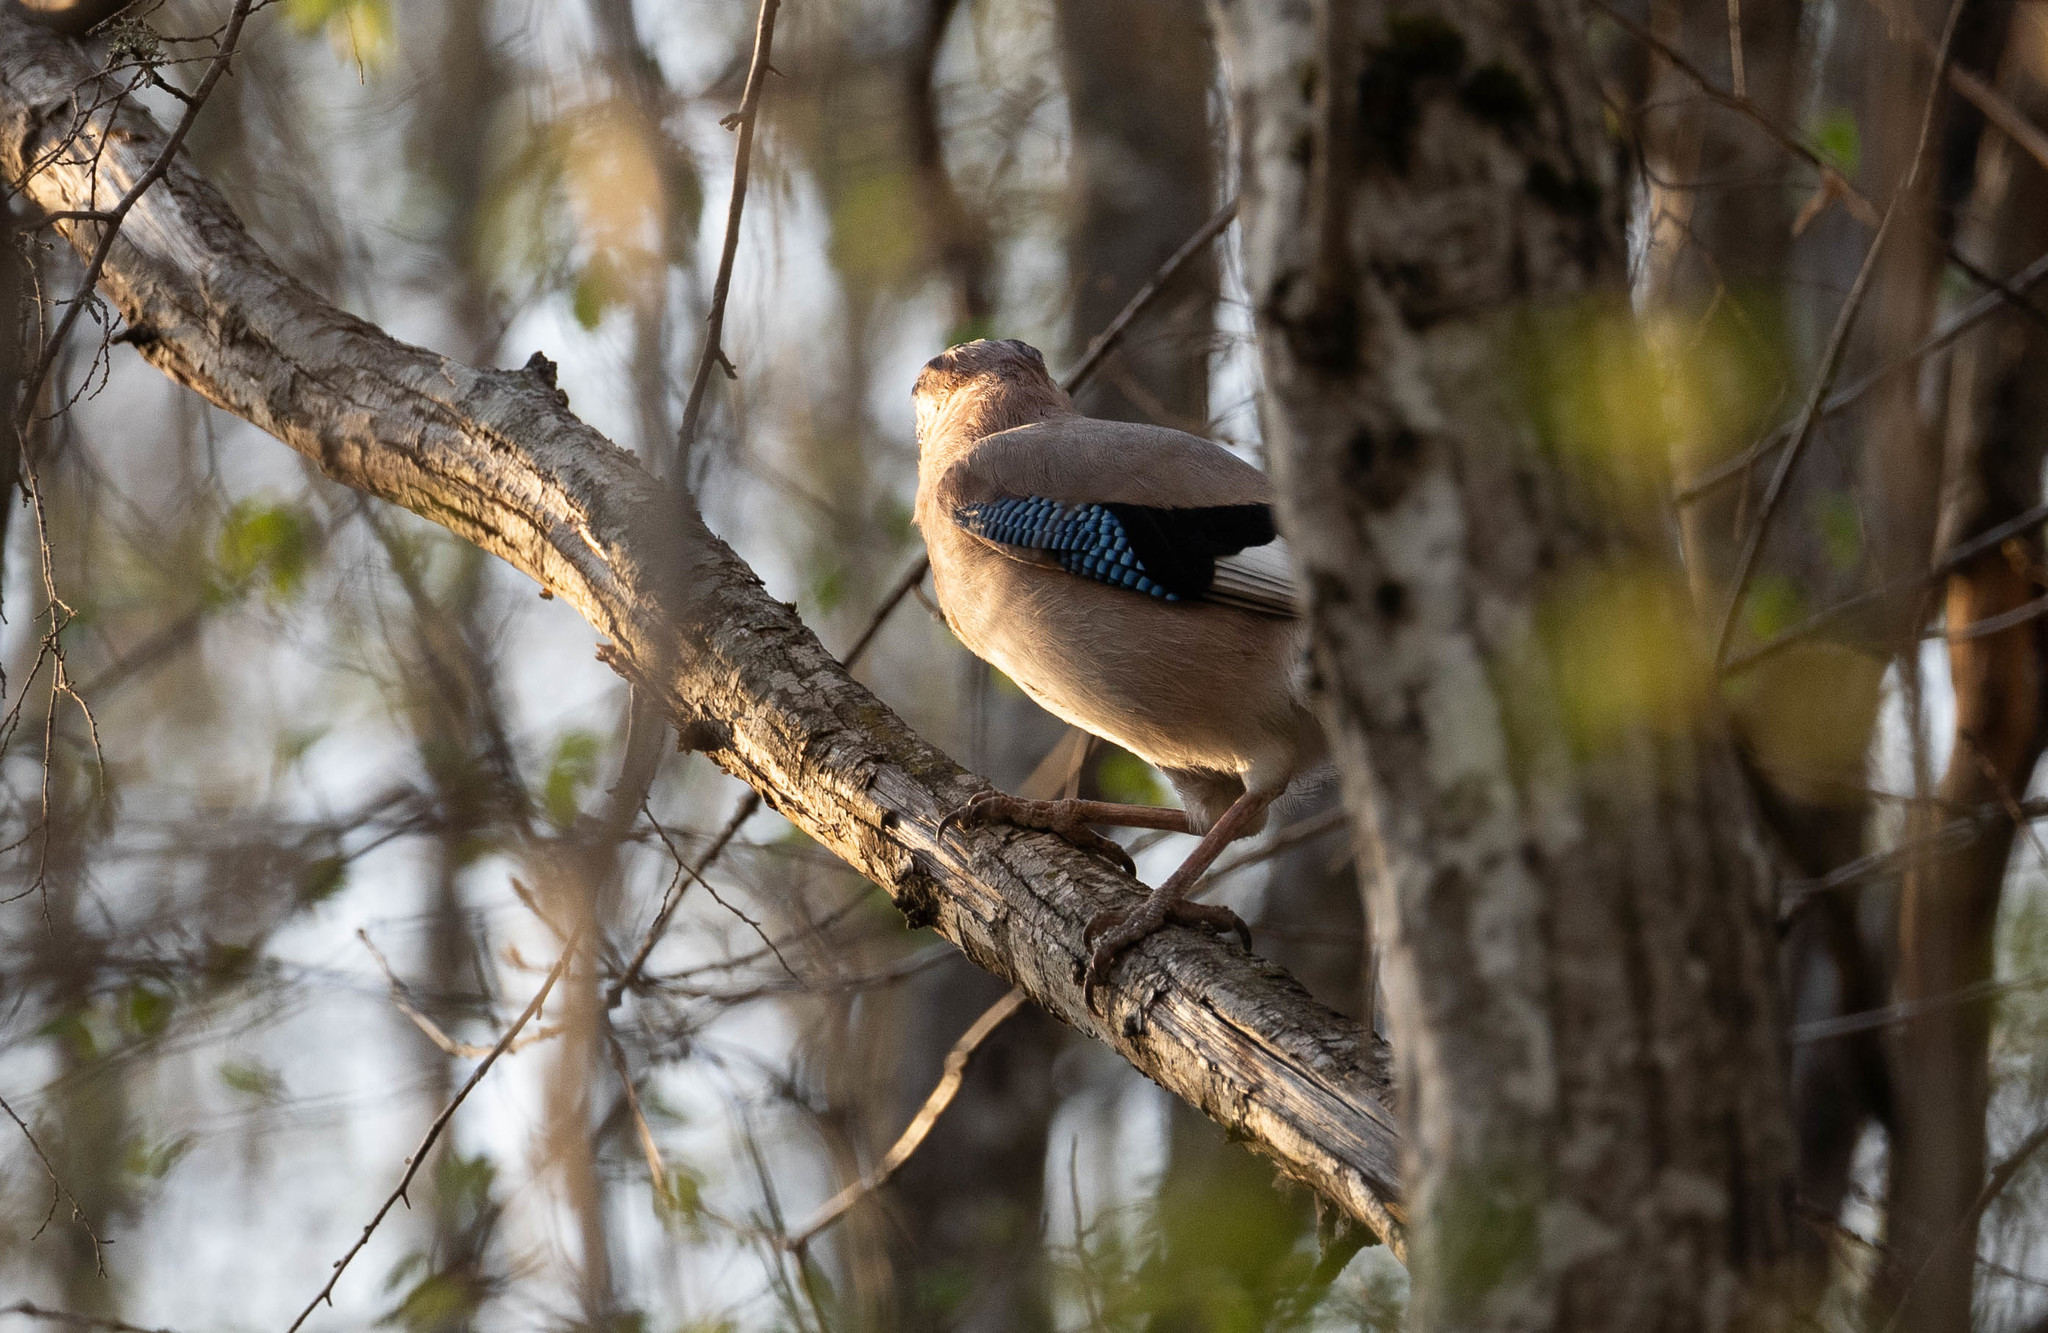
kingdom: Animalia
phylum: Chordata
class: Aves
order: Passeriformes
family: Corvidae
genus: Garrulus
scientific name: Garrulus glandarius
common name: Eurasian jay
